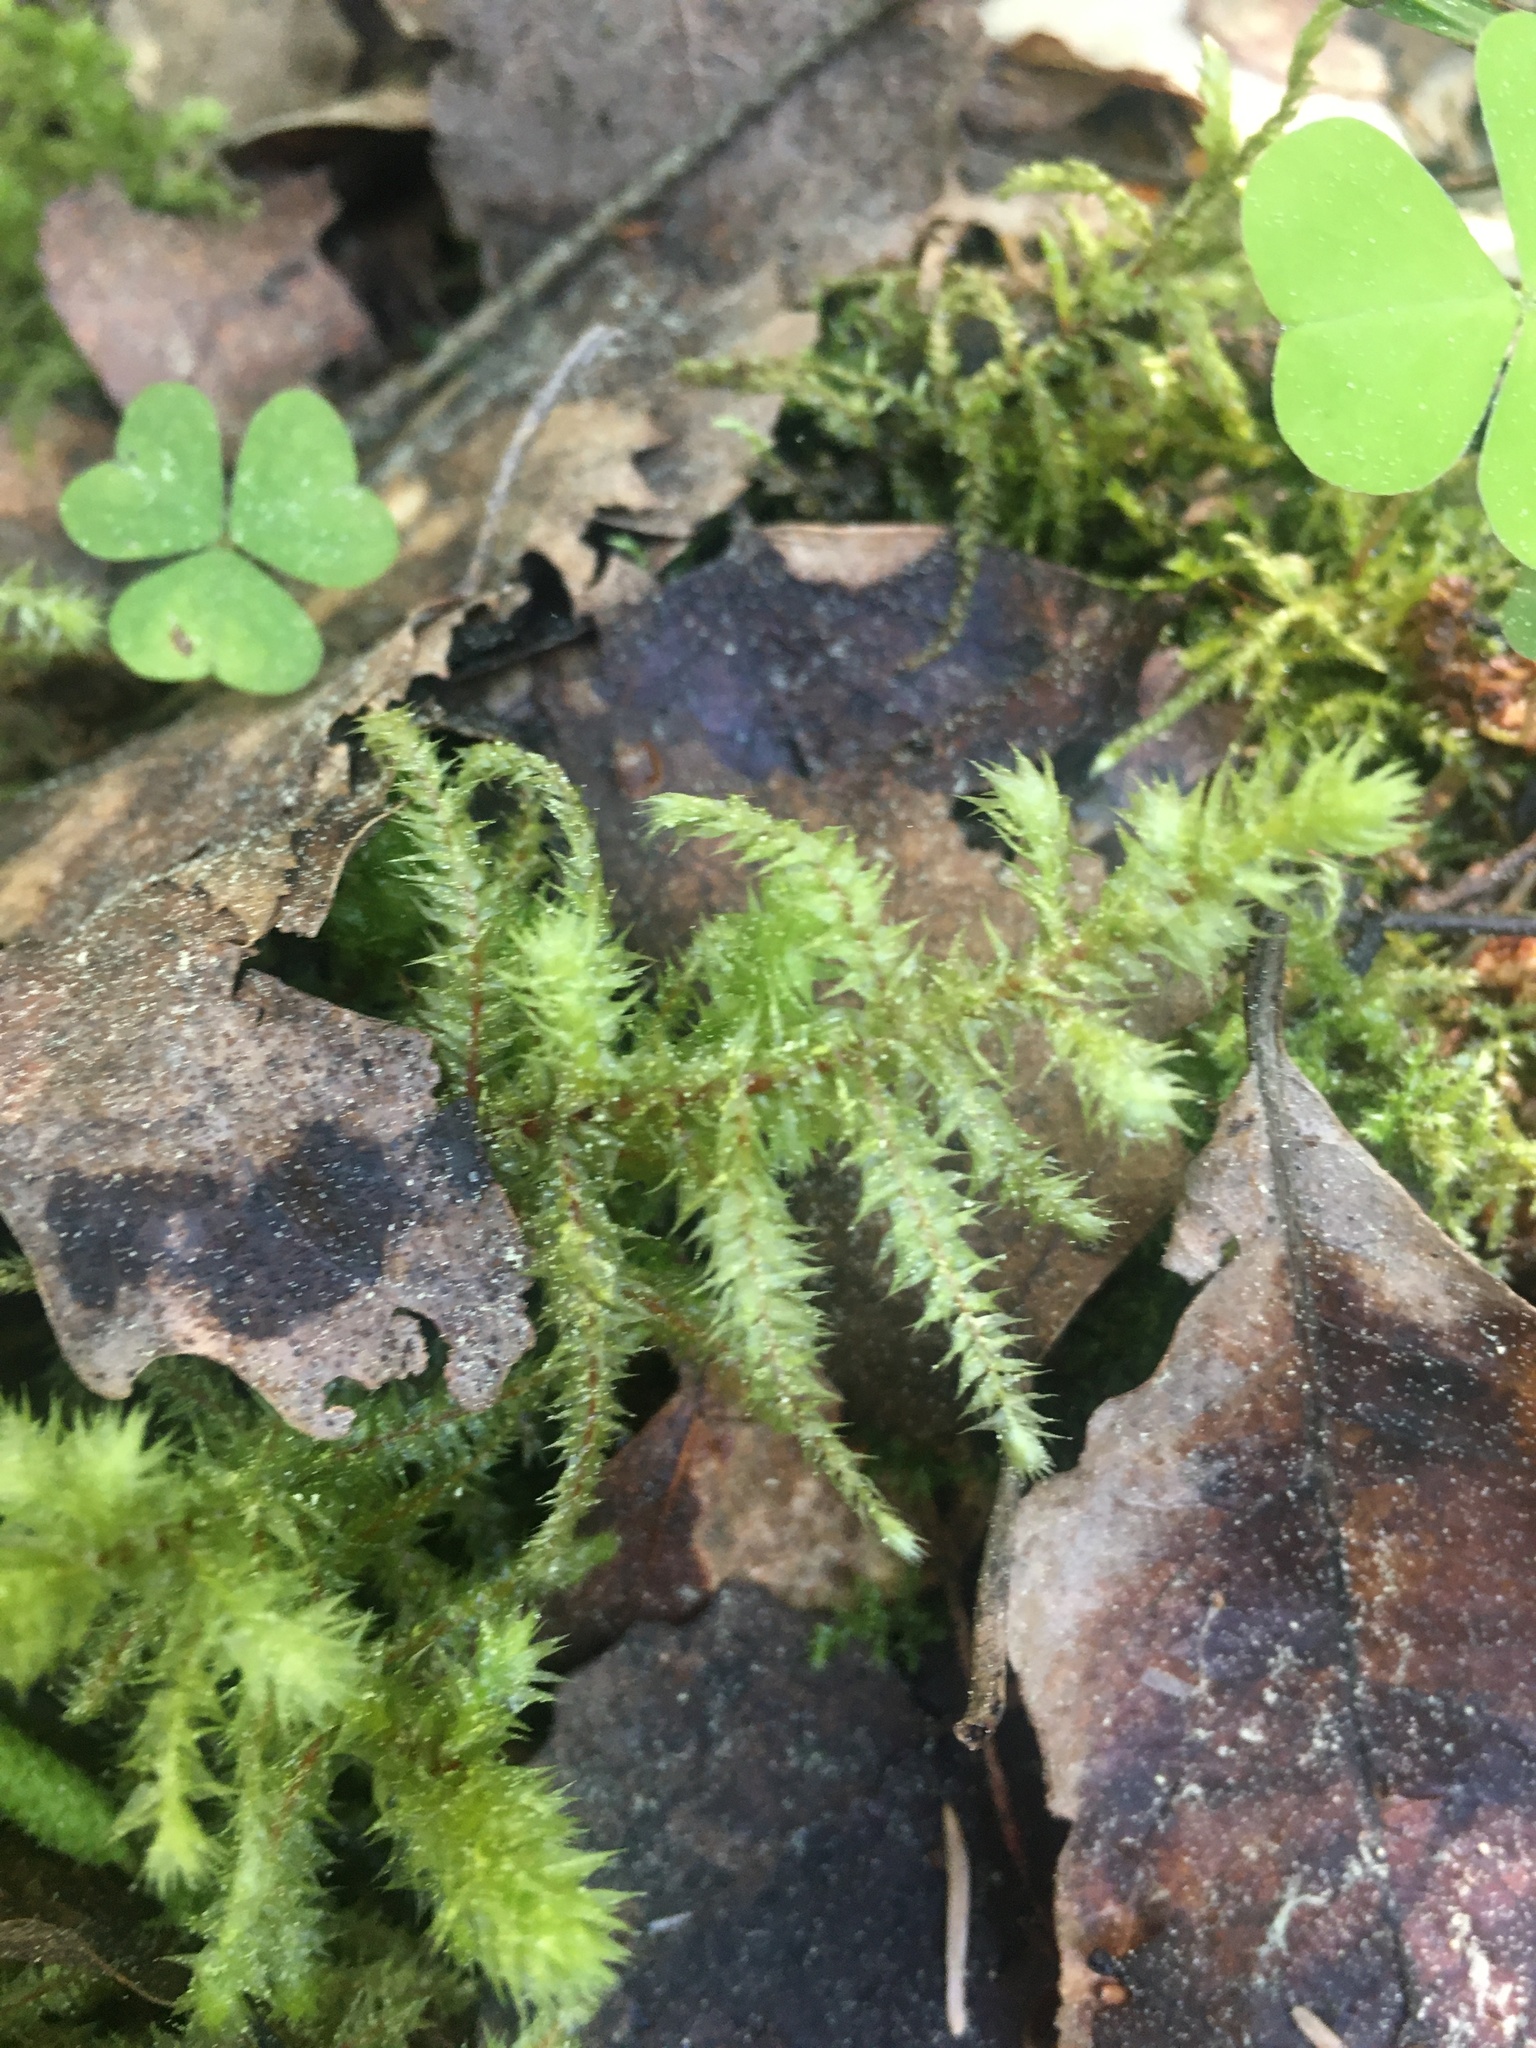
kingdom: Plantae
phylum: Bryophyta
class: Bryopsida
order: Hypnales
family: Hylocomiaceae
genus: Hylocomiadelphus
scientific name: Hylocomiadelphus triquetrus
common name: Rough goose neck moss
